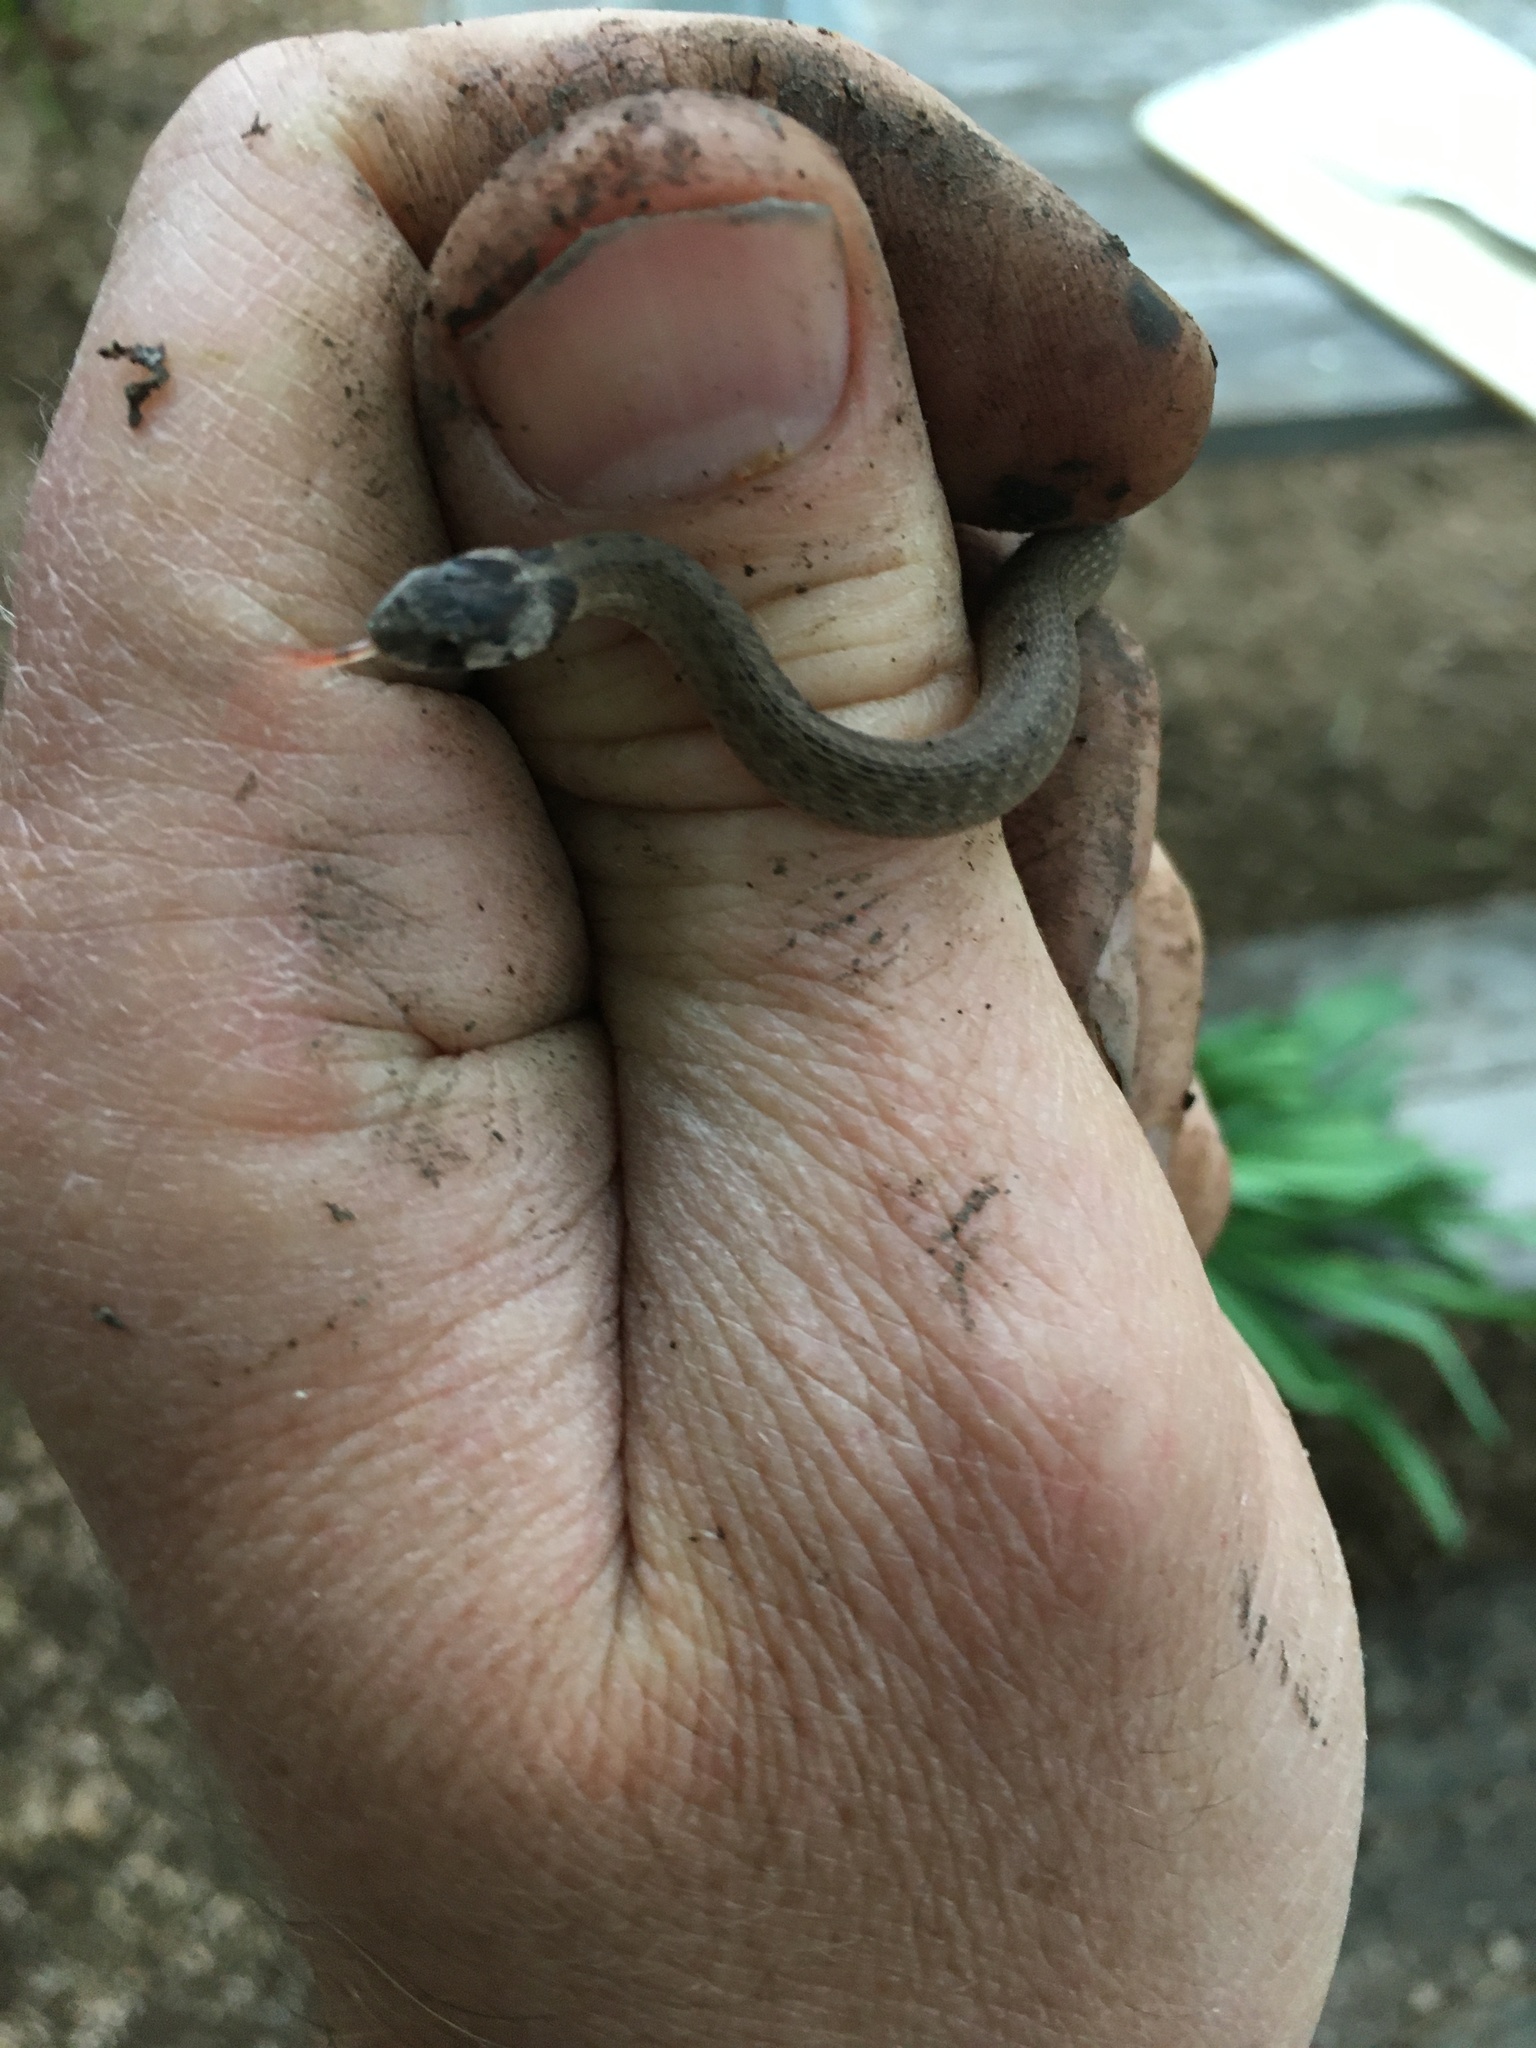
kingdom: Animalia
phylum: Chordata
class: Squamata
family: Colubridae
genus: Storeria
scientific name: Storeria dekayi
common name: (dekay’s) brown snake
